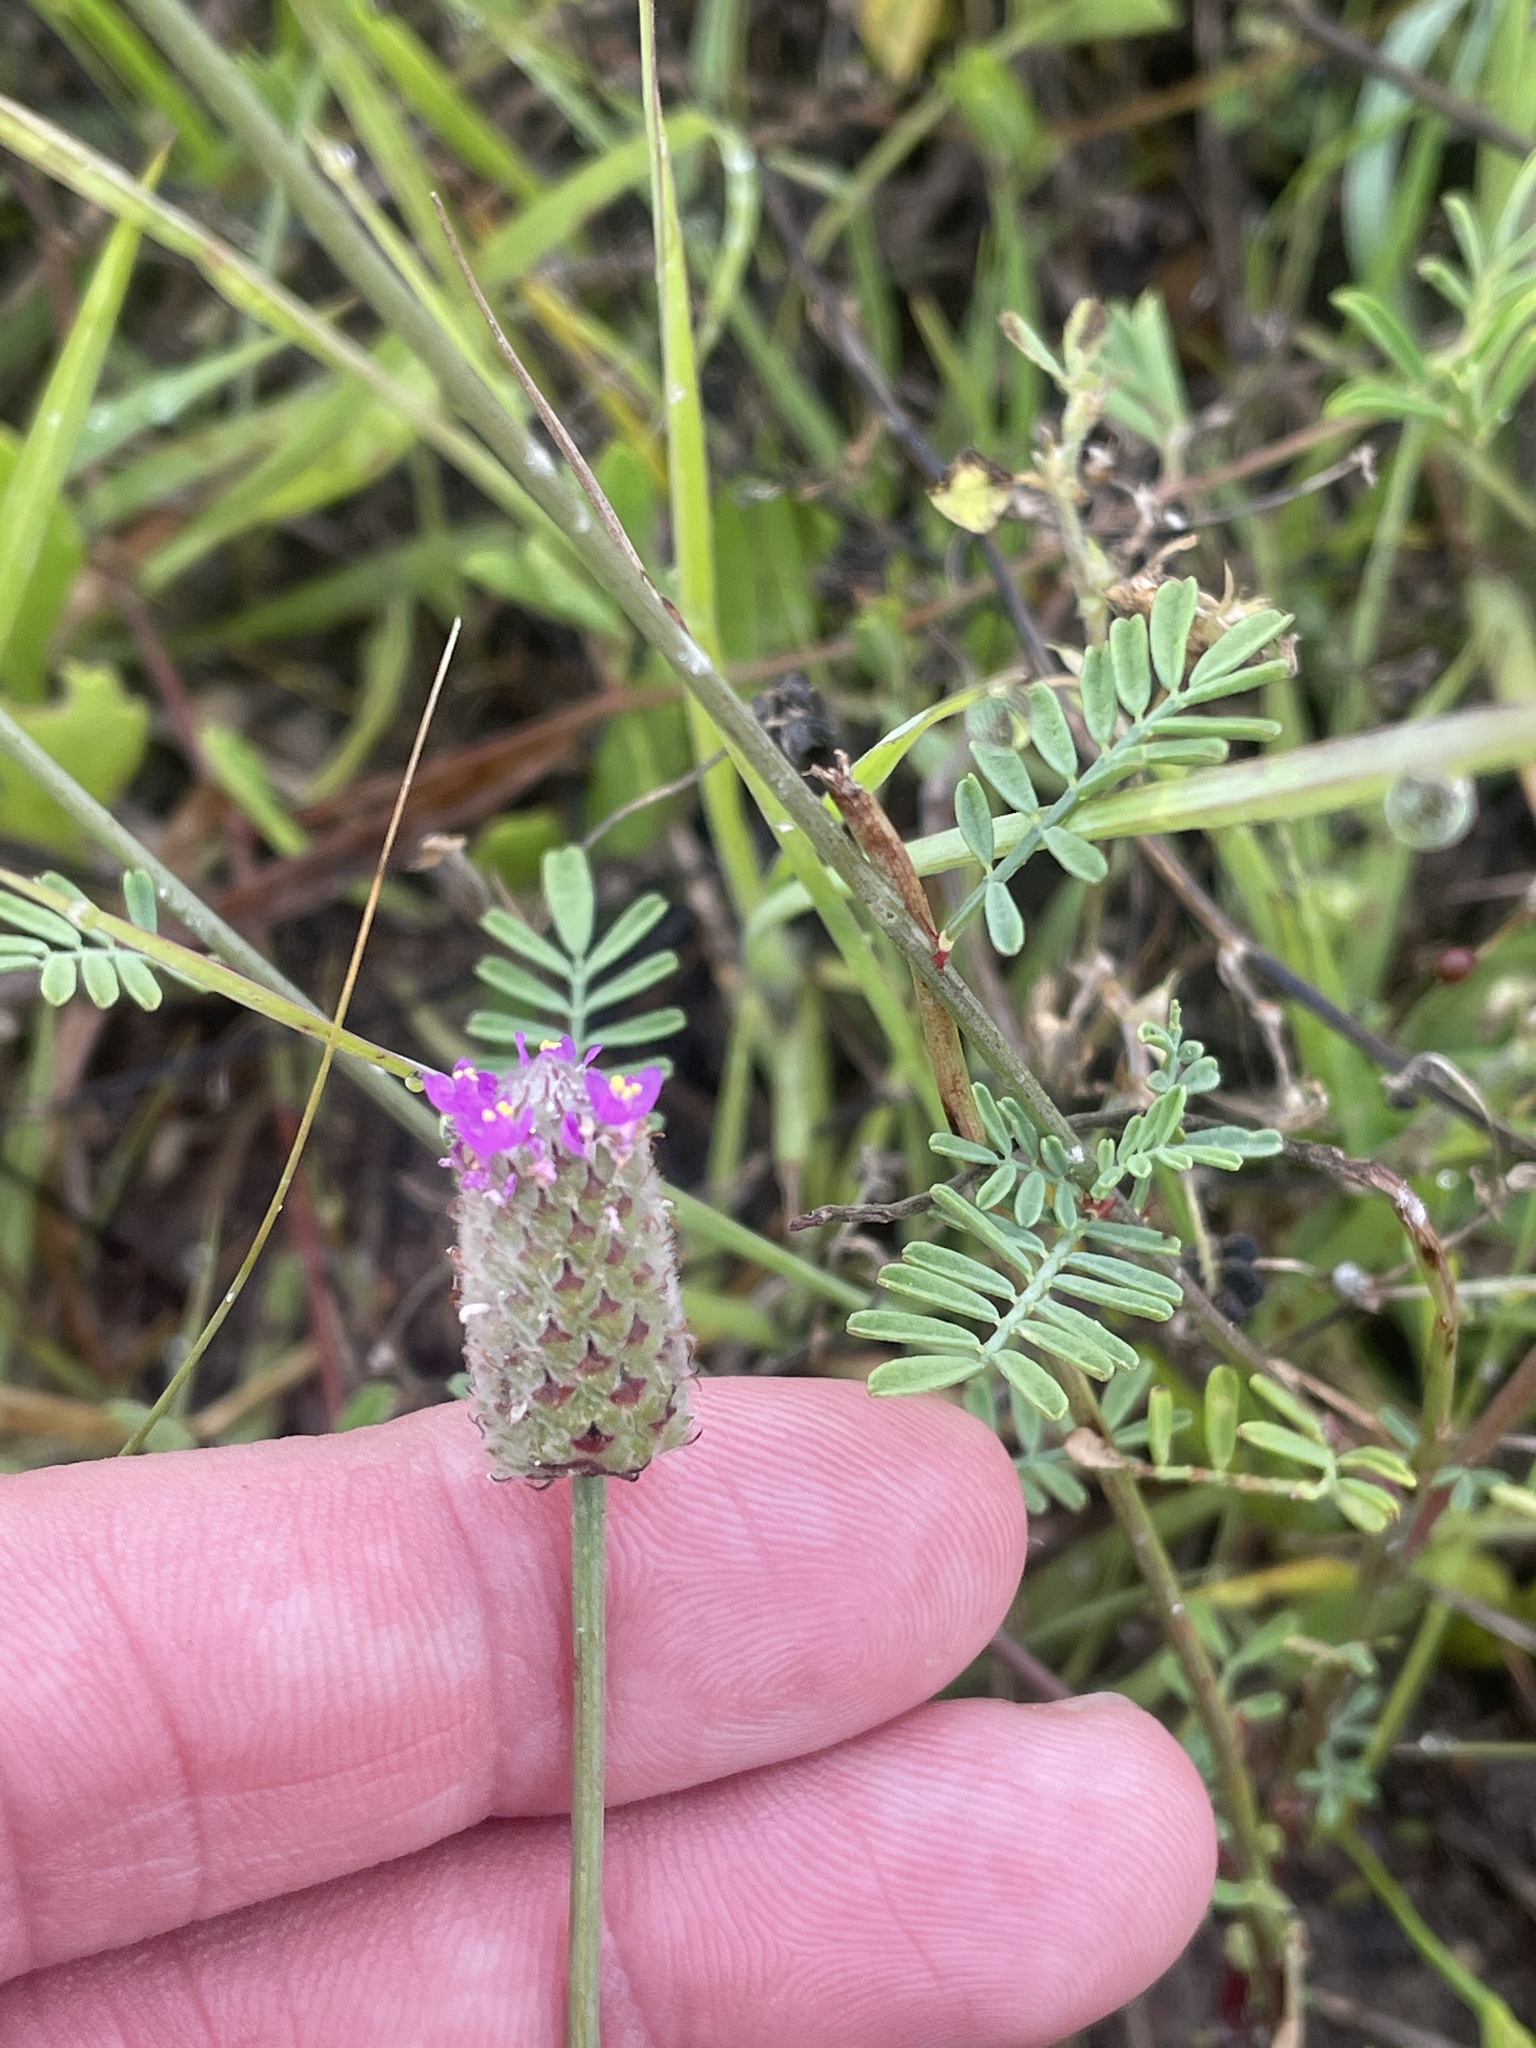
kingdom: Plantae
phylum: Tracheophyta
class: Magnoliopsida
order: Fabales
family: Fabaceae
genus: Dalea
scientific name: Dalea emarginata
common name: Wedgeleaf prairie clover
